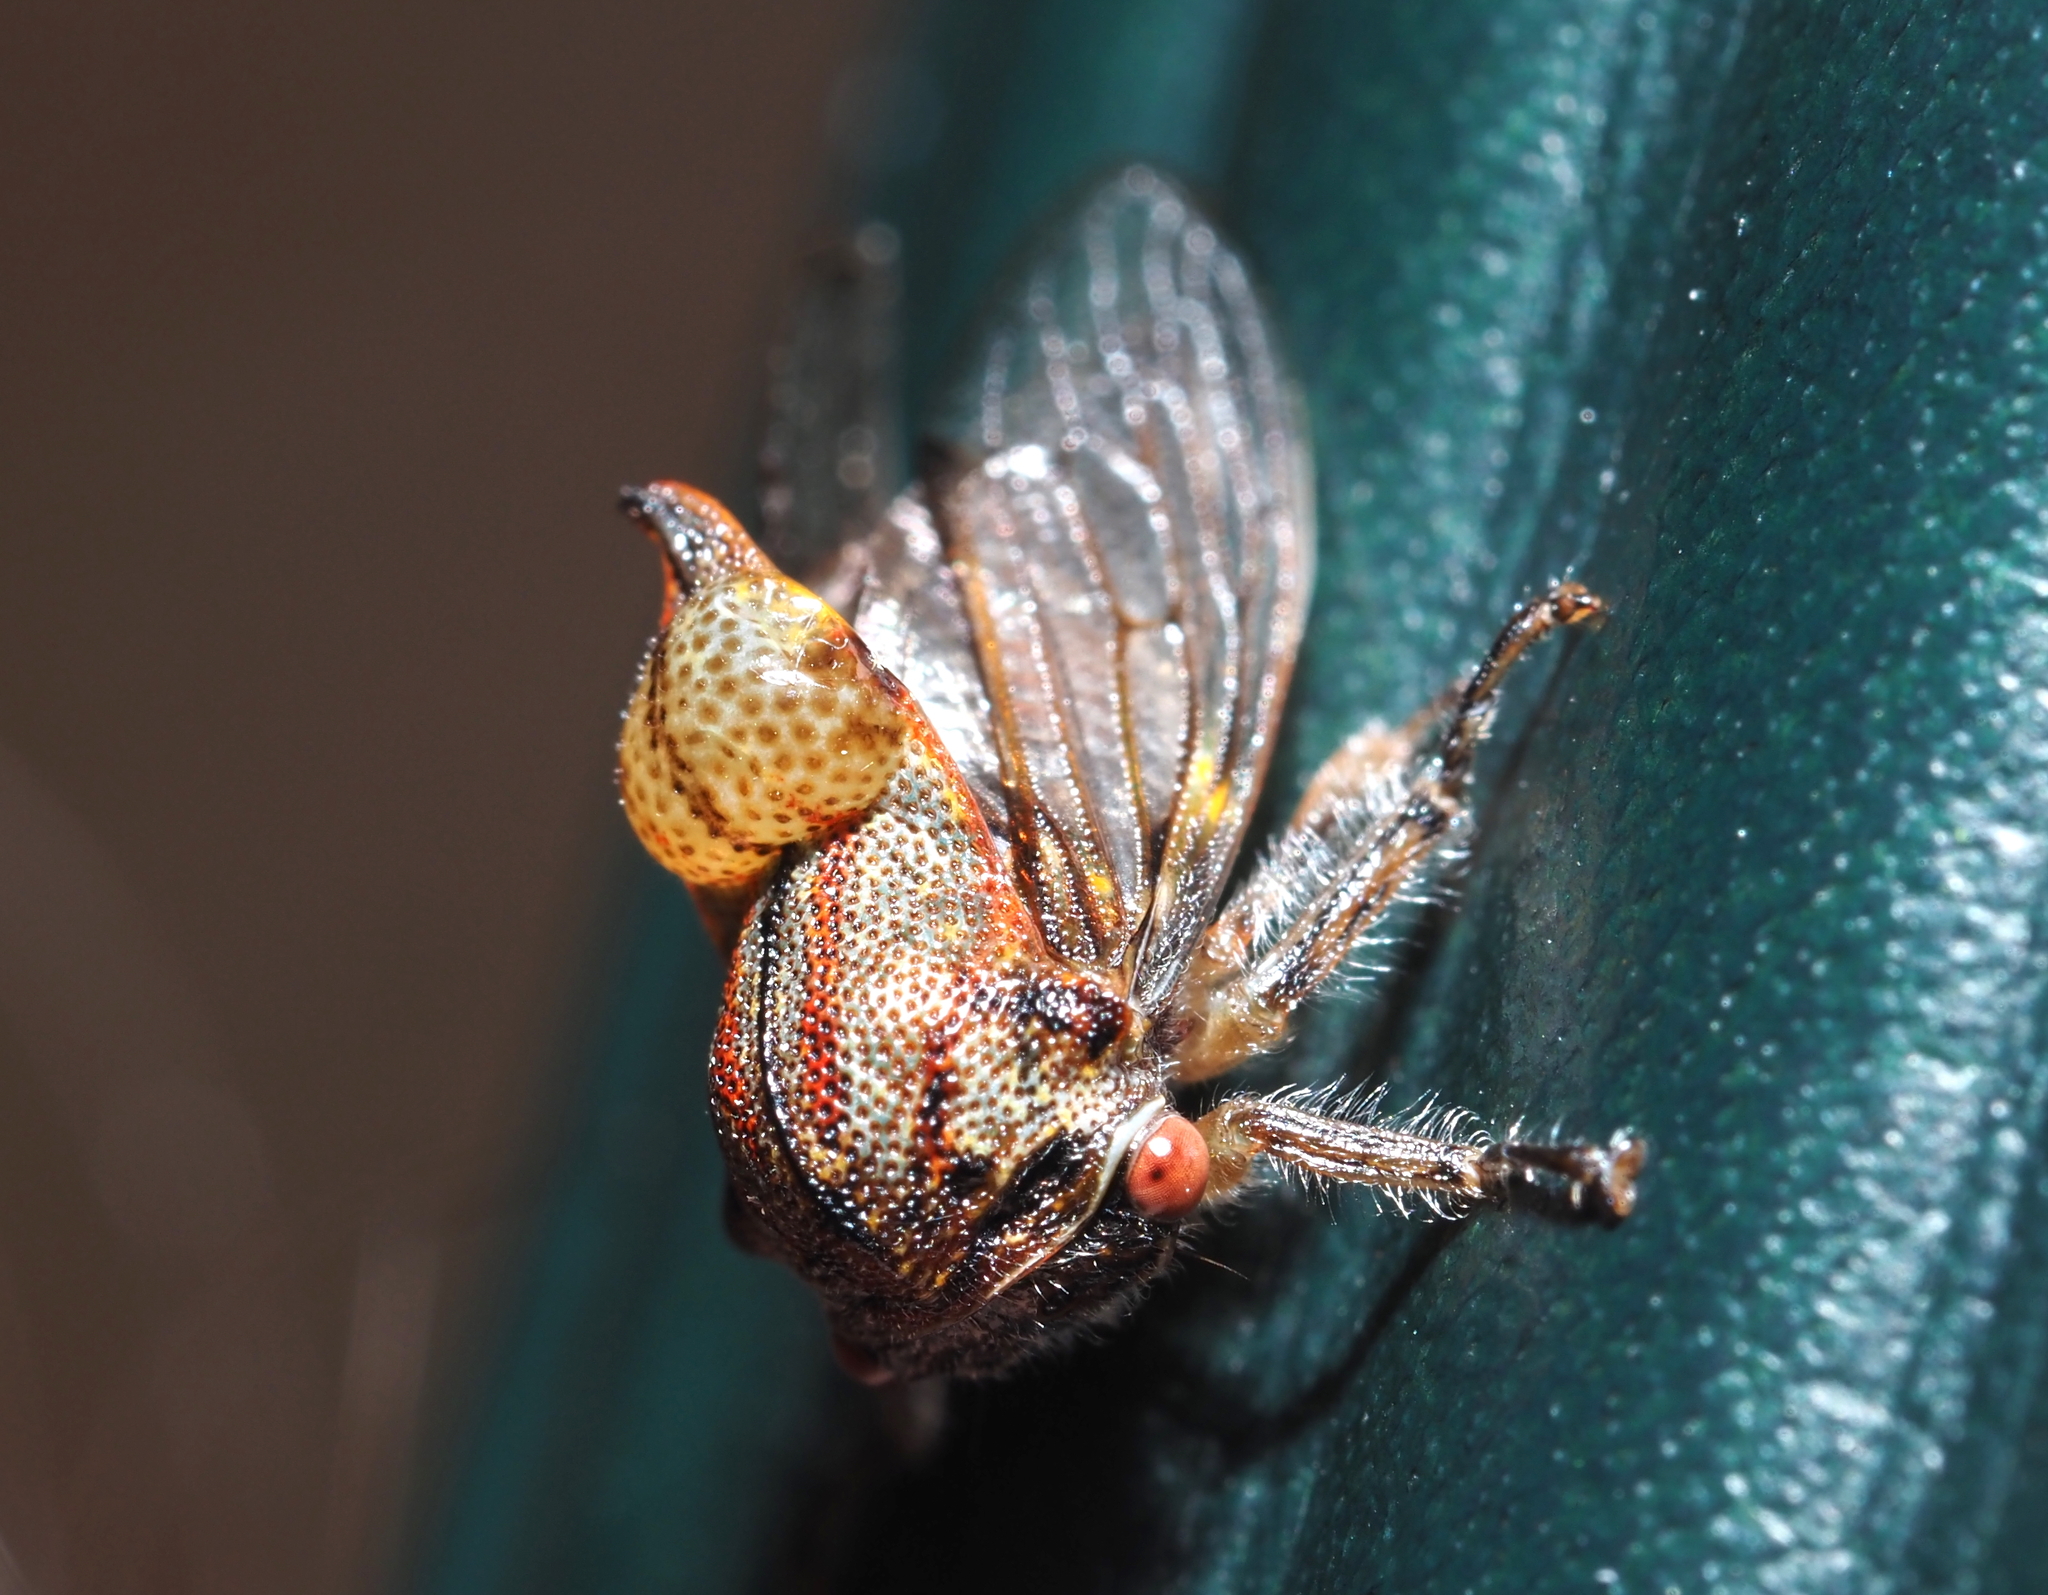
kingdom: Animalia
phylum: Arthropoda
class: Insecta
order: Hemiptera
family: Membracidae
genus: Platycotis
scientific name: Platycotis vittatus
